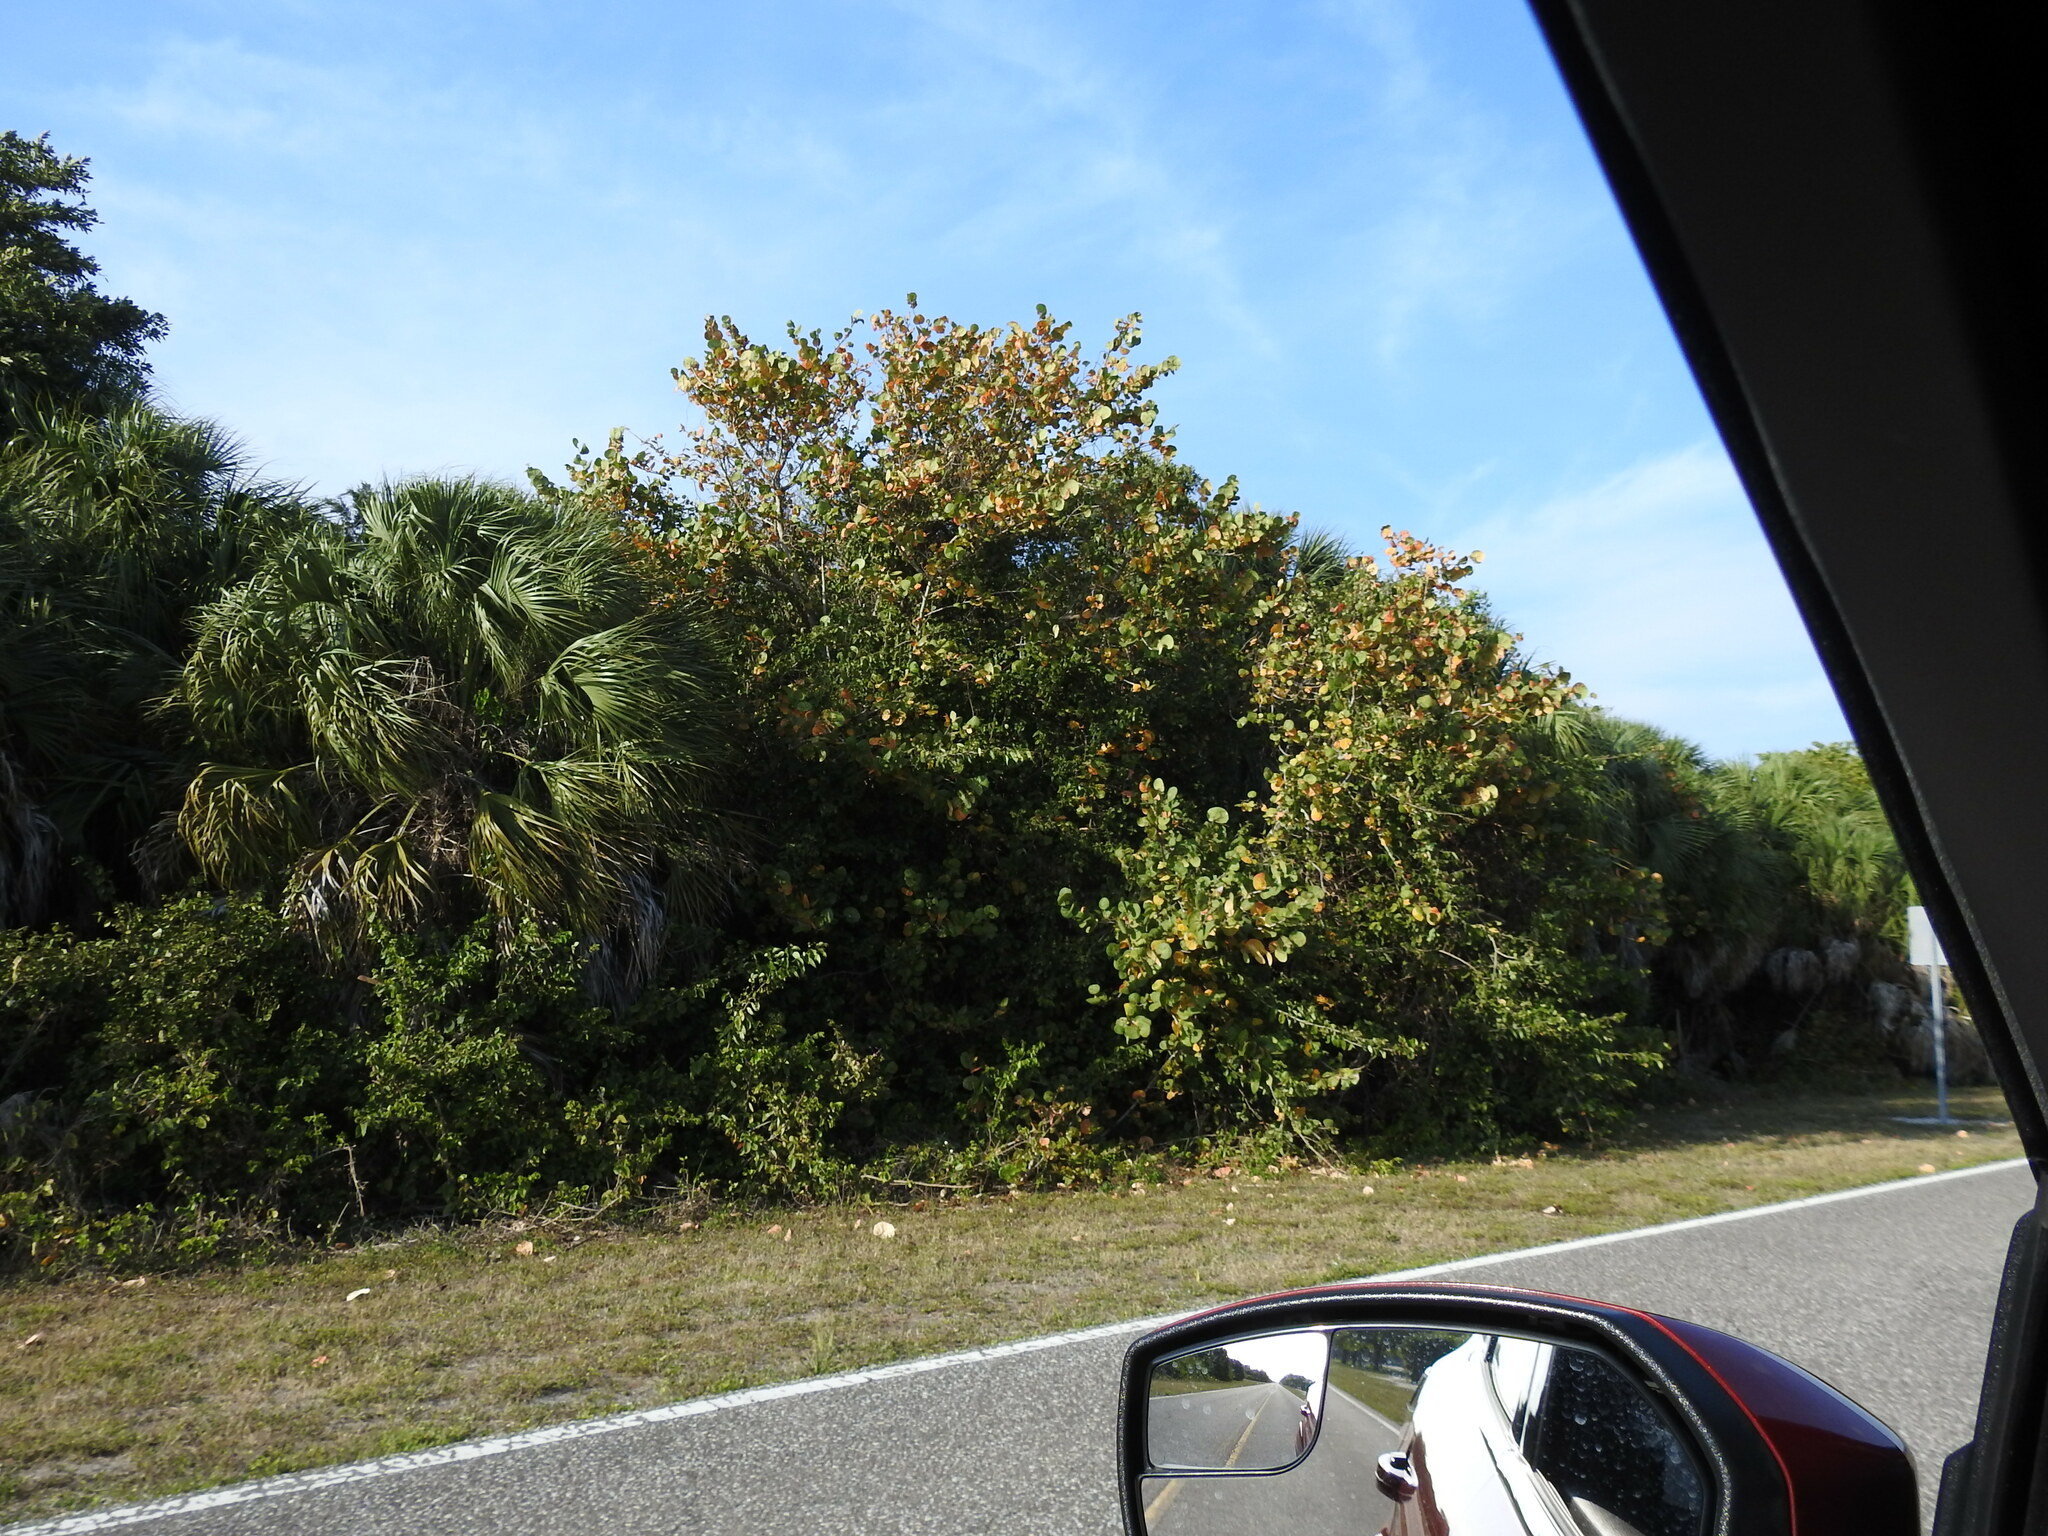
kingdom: Plantae
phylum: Tracheophyta
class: Magnoliopsida
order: Caryophyllales
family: Polygonaceae
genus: Coccoloba
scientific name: Coccoloba uvifera
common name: Seagrape
